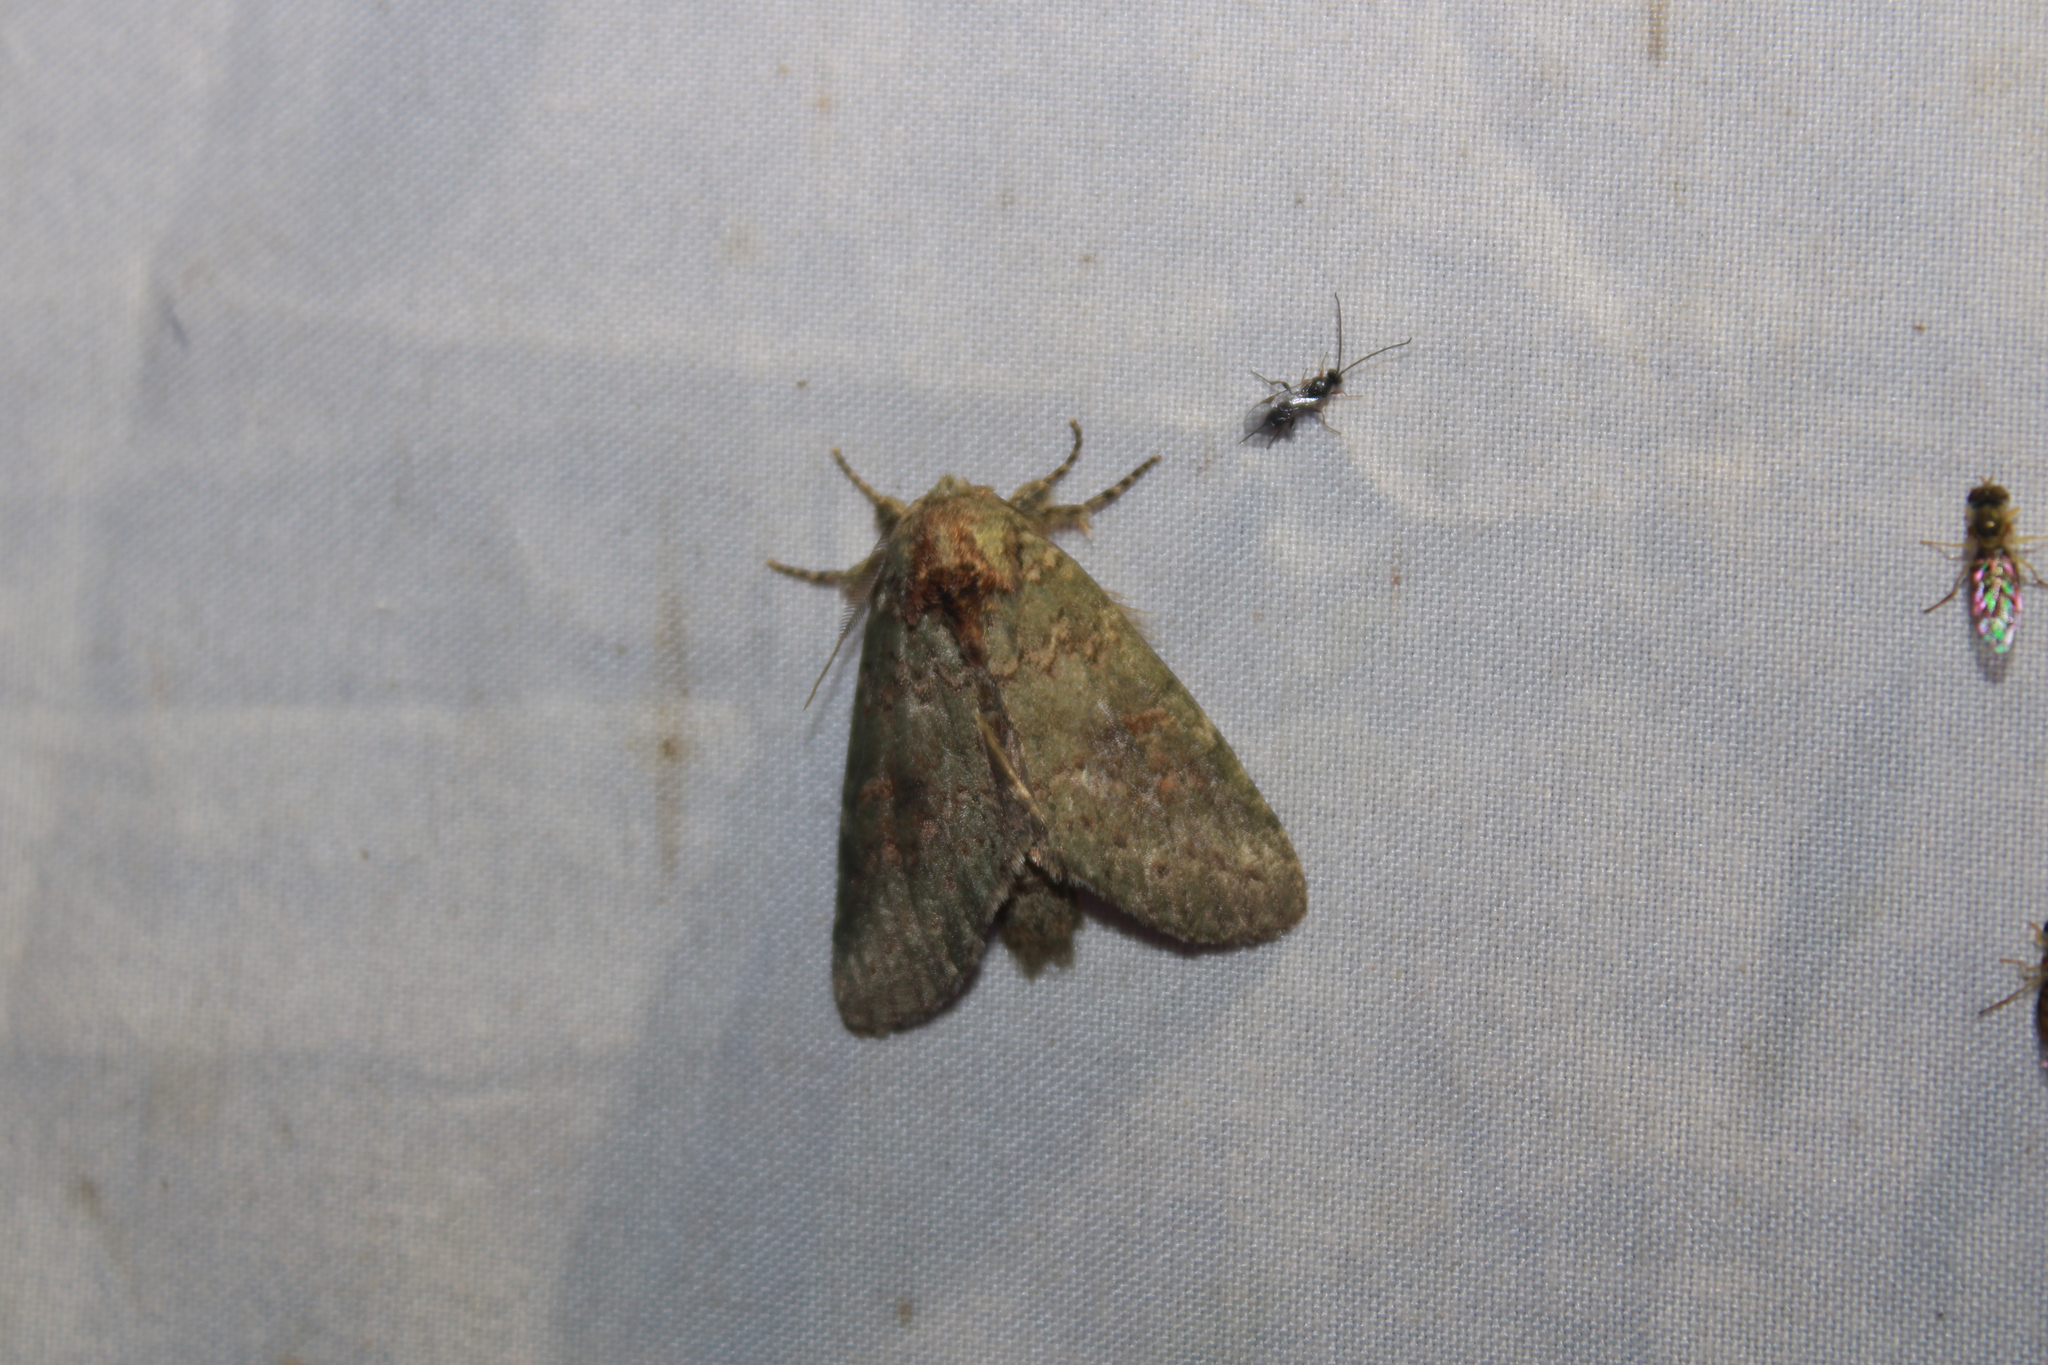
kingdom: Animalia
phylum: Arthropoda
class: Insecta
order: Lepidoptera
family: Notodontidae
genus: Disphragis
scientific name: Disphragis Cecrita biundata
